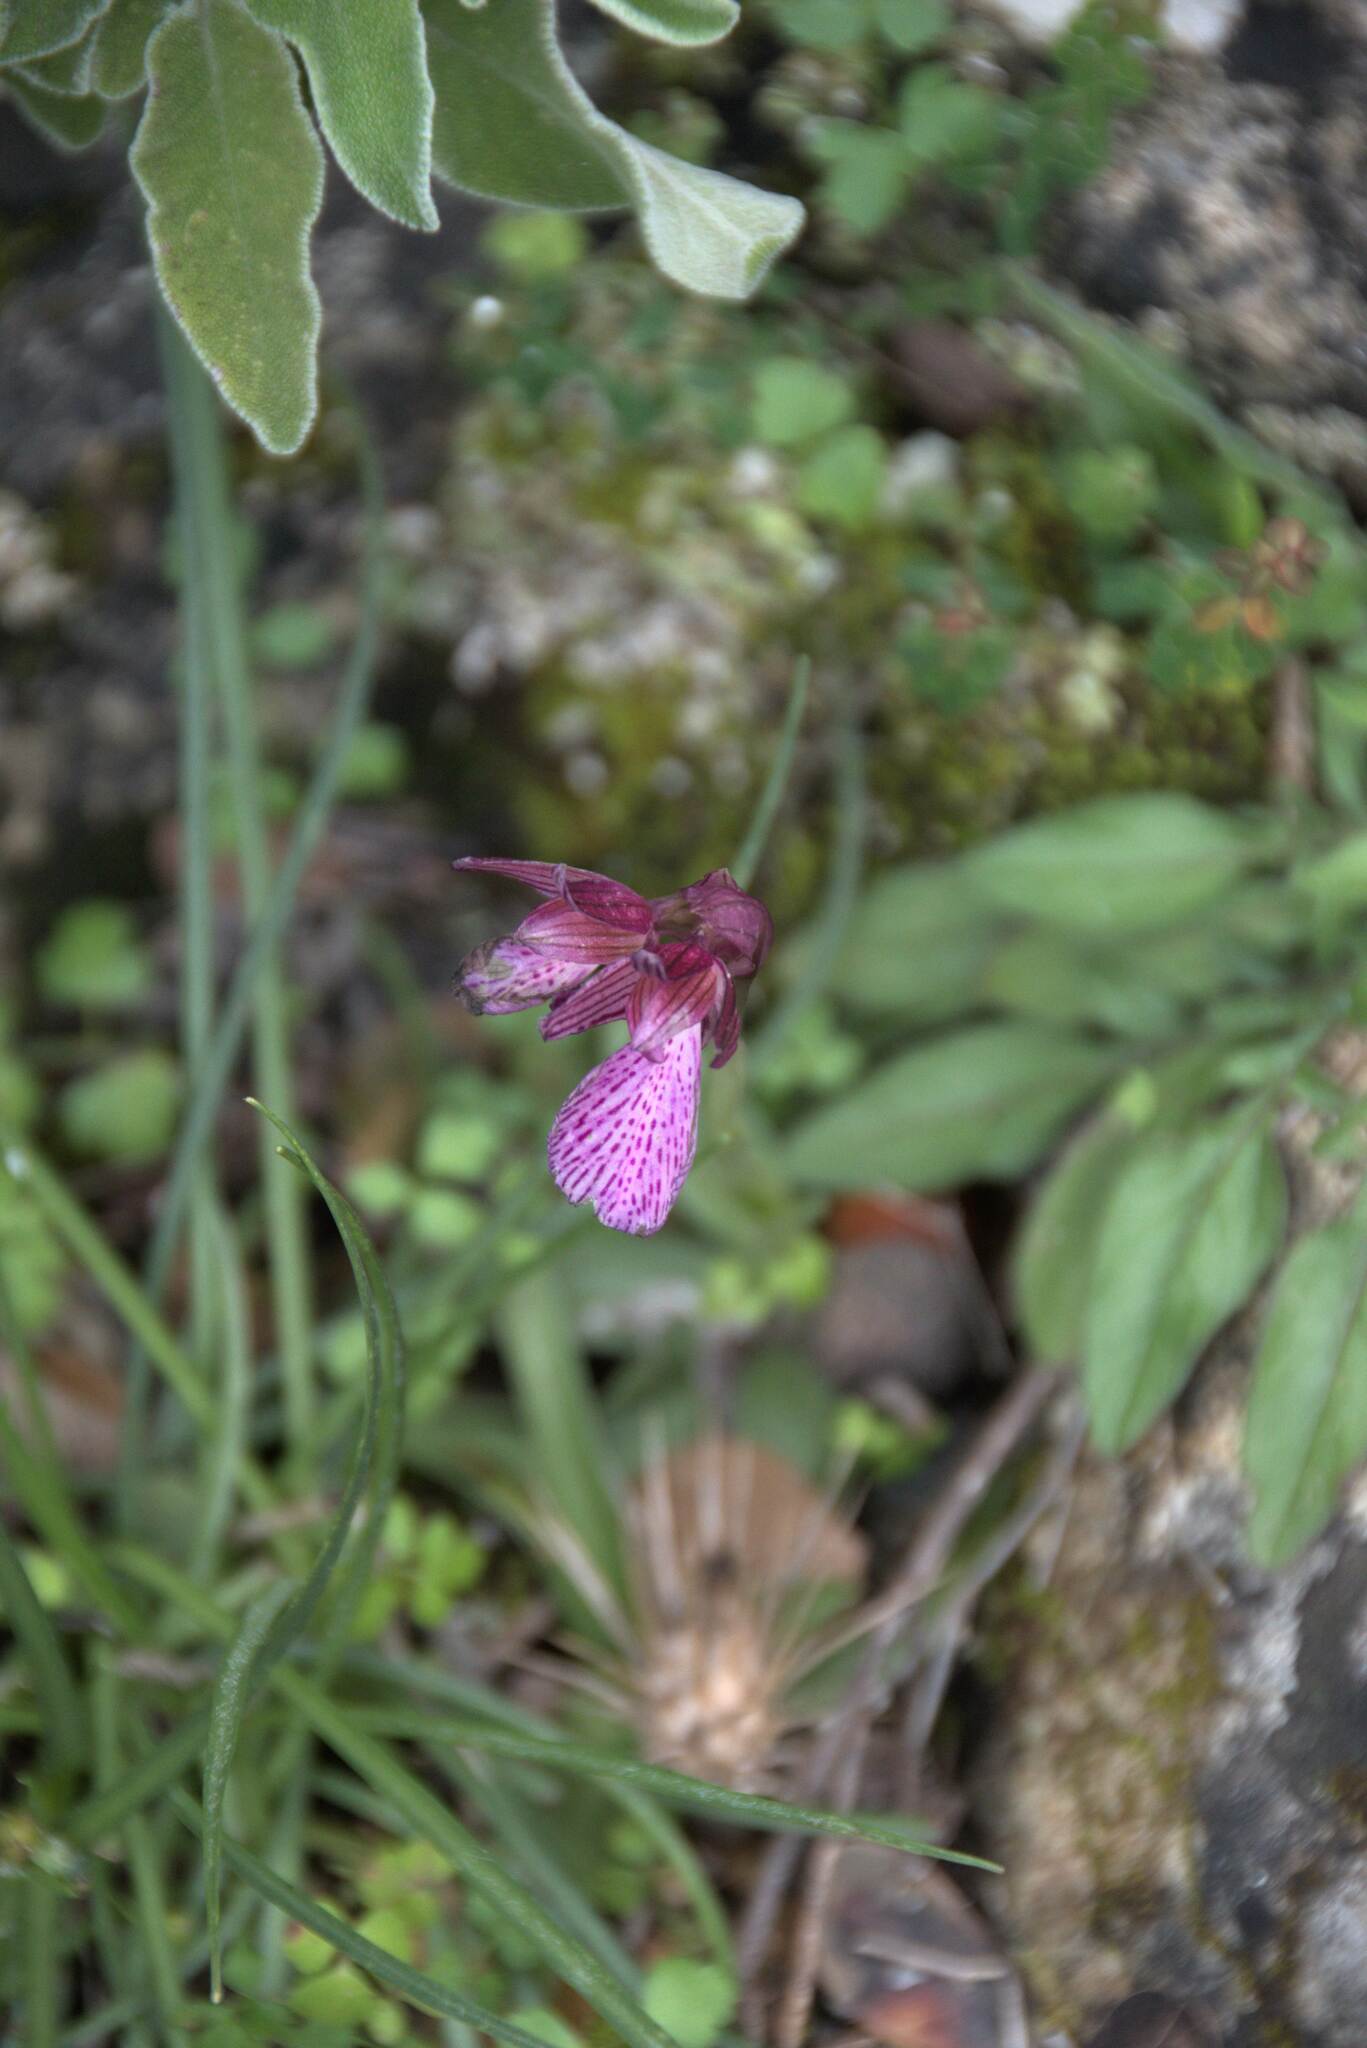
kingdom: Plantae
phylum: Tracheophyta
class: Liliopsida
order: Asparagales
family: Orchidaceae
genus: Anacamptis
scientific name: Anacamptis papilionacea
